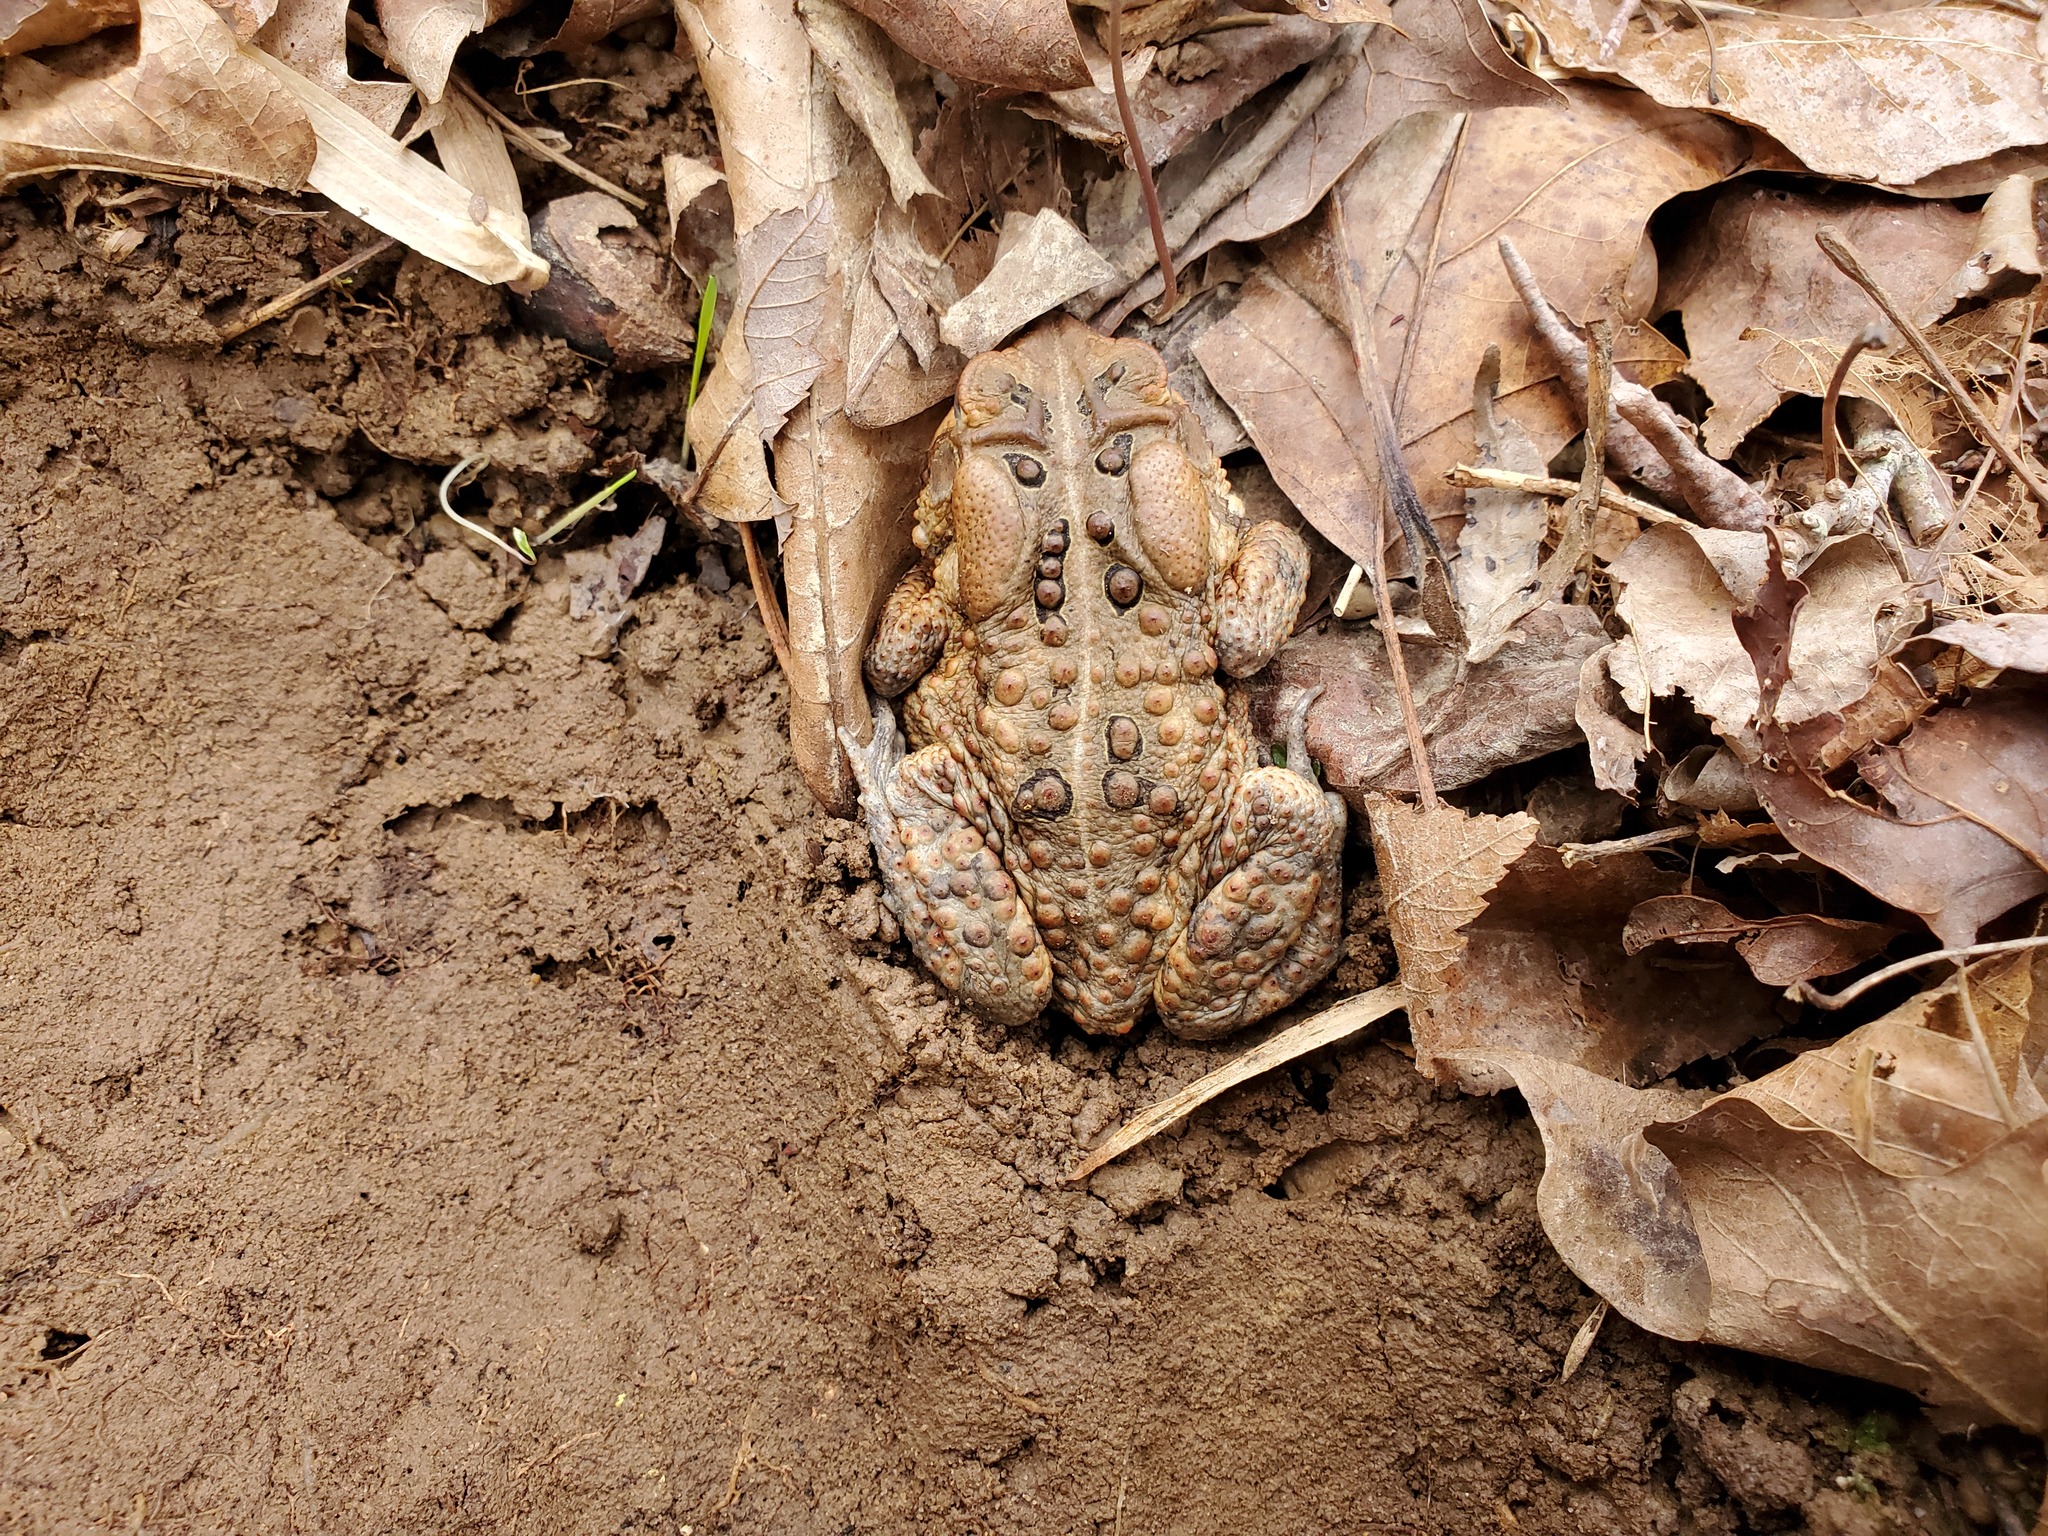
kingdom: Animalia
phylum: Chordata
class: Amphibia
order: Anura
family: Bufonidae
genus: Anaxyrus
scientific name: Anaxyrus americanus
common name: American toad
